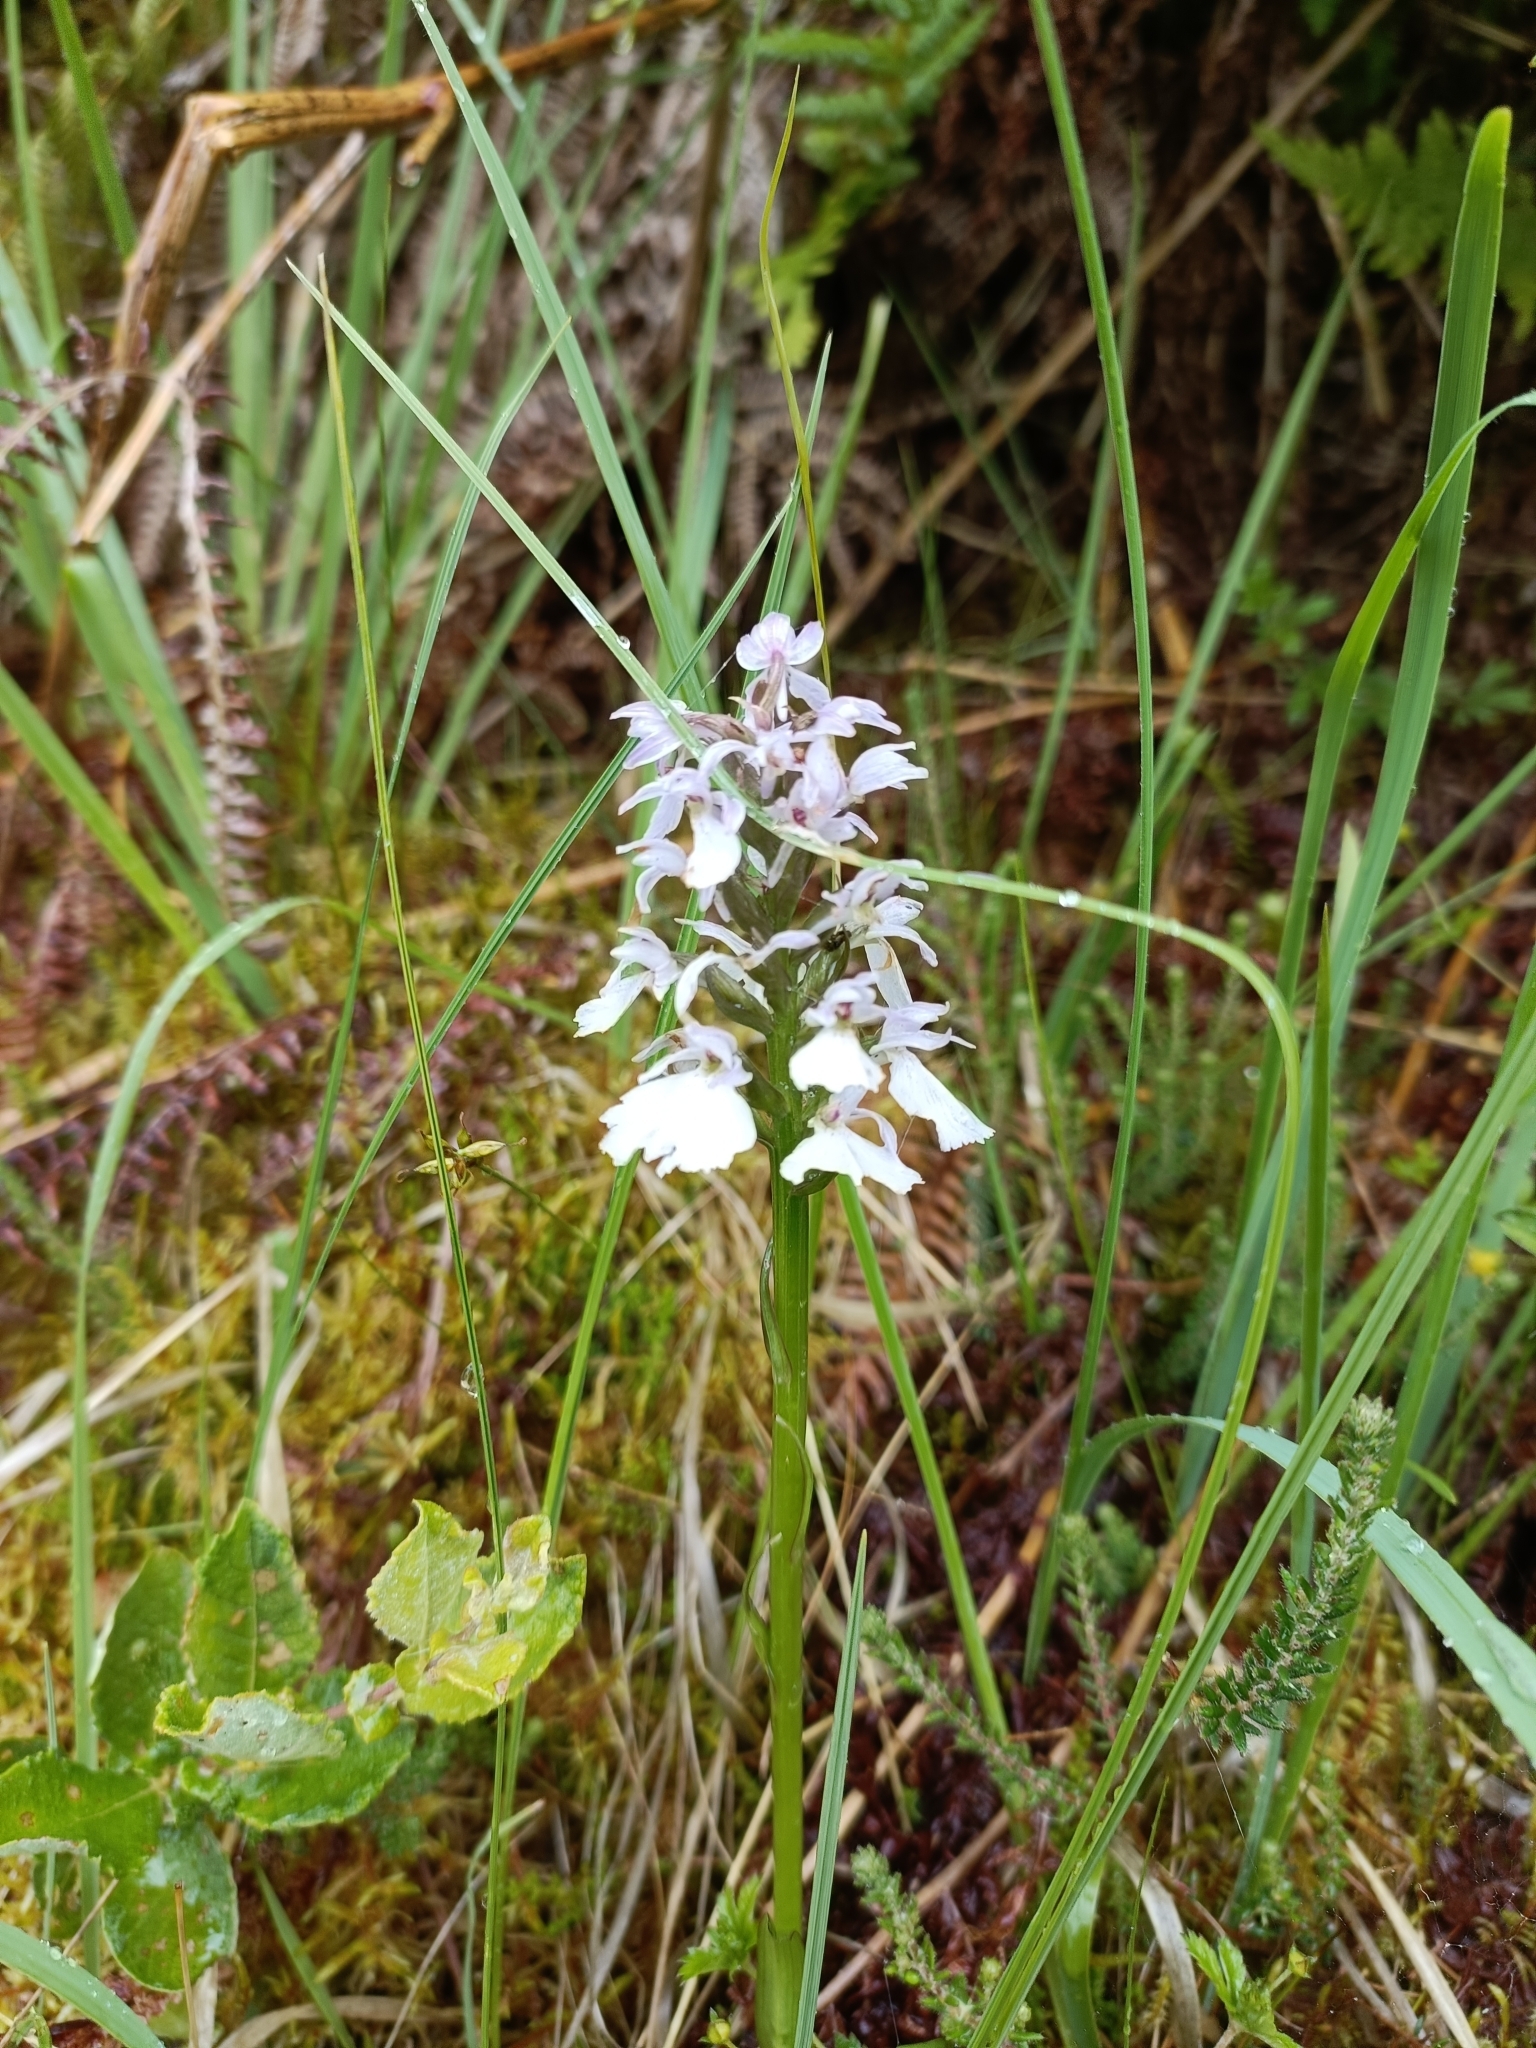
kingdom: Plantae
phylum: Tracheophyta
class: Liliopsida
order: Asparagales
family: Orchidaceae
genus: Dactylorhiza
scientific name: Dactylorhiza maculata
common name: Heath spotted-orchid
